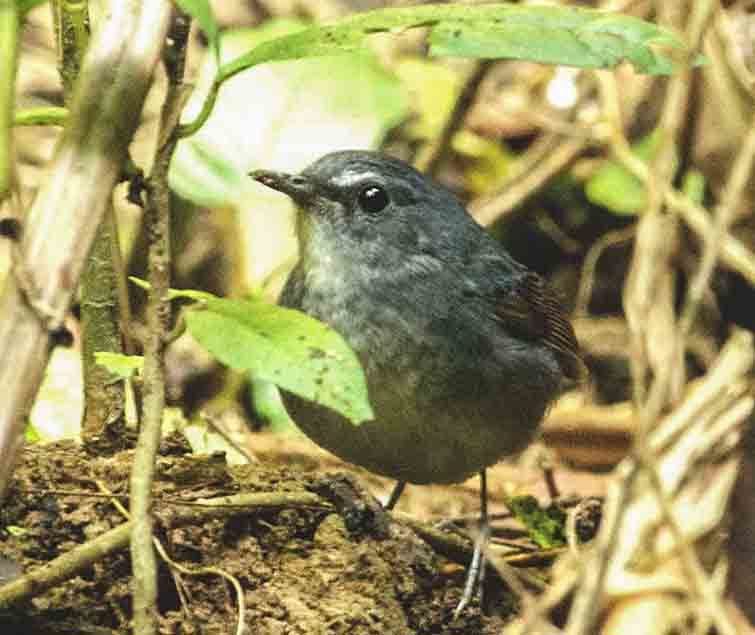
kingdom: Animalia
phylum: Chordata
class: Aves
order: Passeriformes
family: Muscicapidae
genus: Brachypteryx
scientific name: Brachypteryx leucophris
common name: Lesser shortwing
